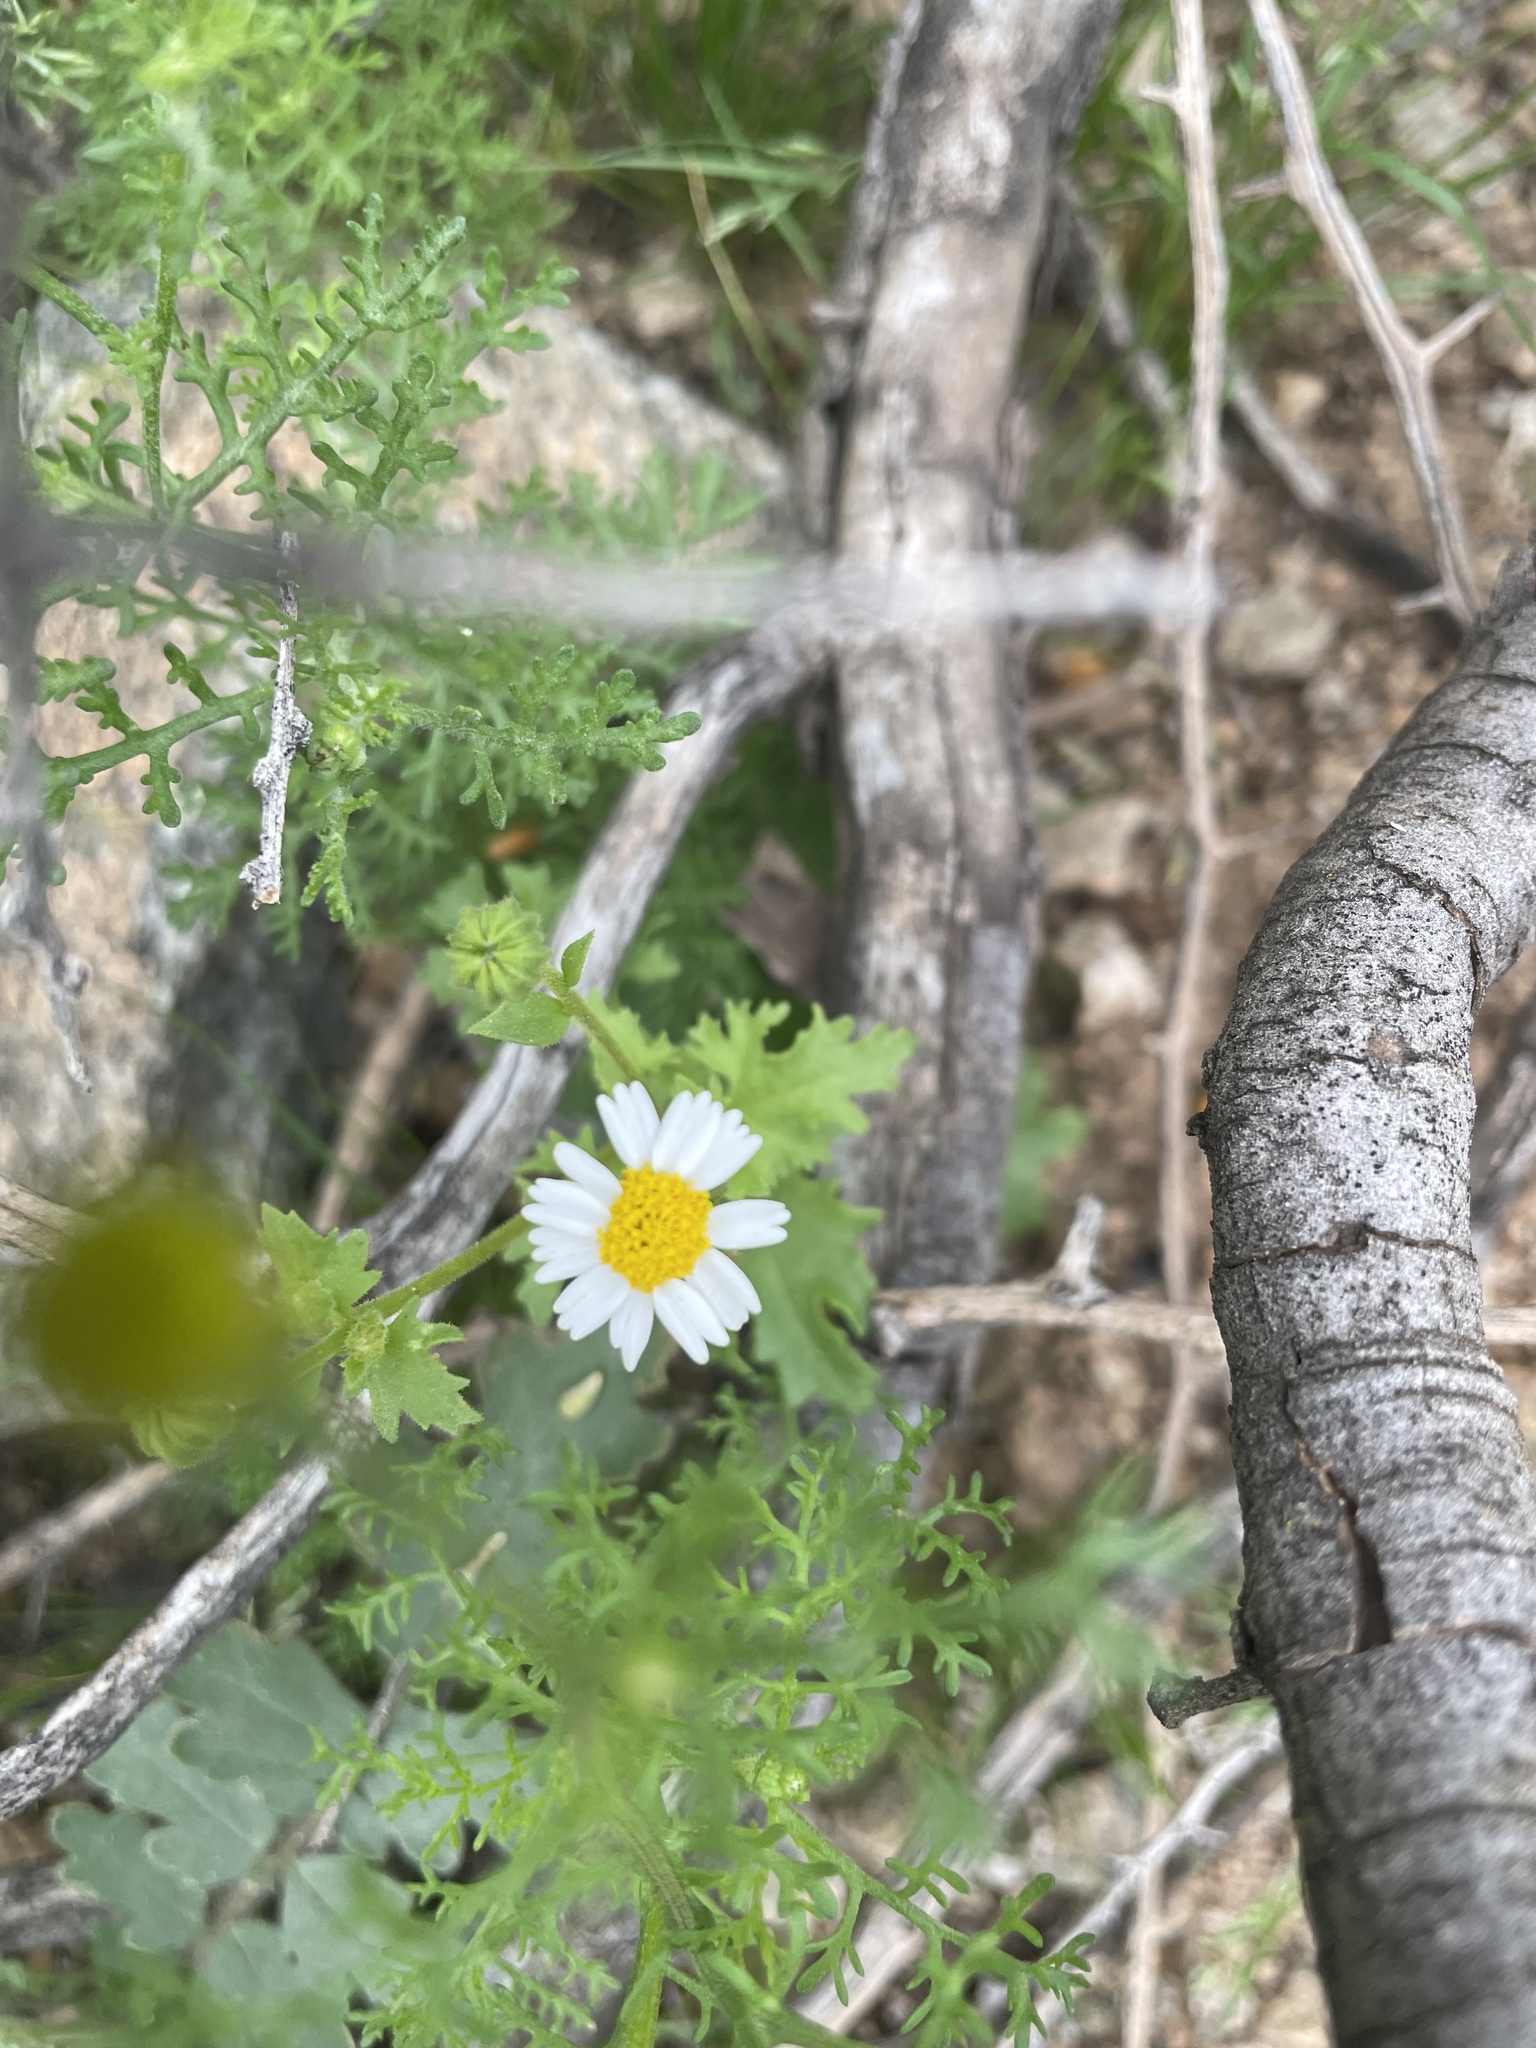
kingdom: Plantae
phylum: Tracheophyta
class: Magnoliopsida
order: Asterales
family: Asteraceae
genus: Laphamia
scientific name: Laphamia emoryi
